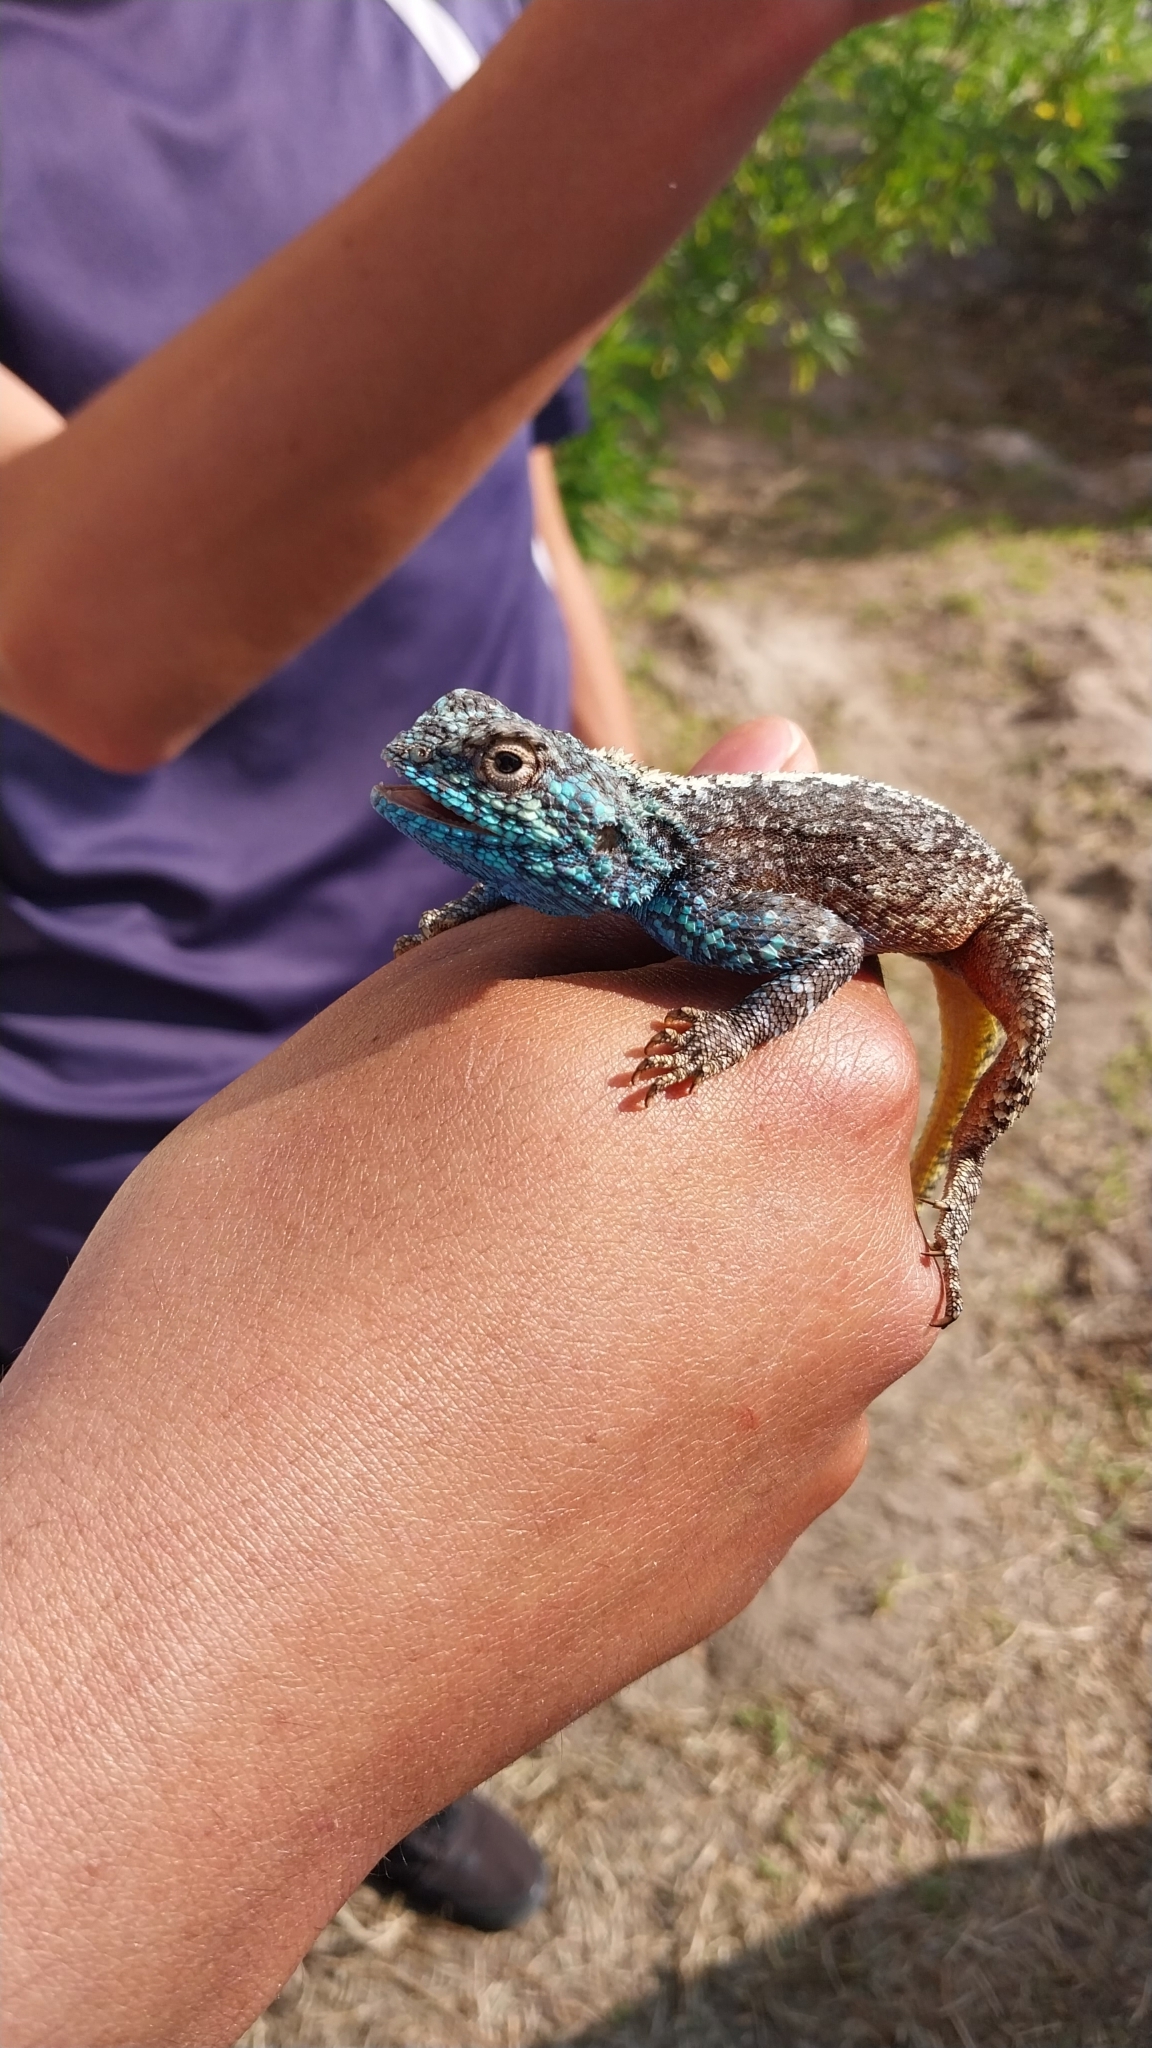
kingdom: Animalia
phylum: Chordata
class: Squamata
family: Agamidae
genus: Agama
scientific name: Agama atra
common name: Southern african rock agama
